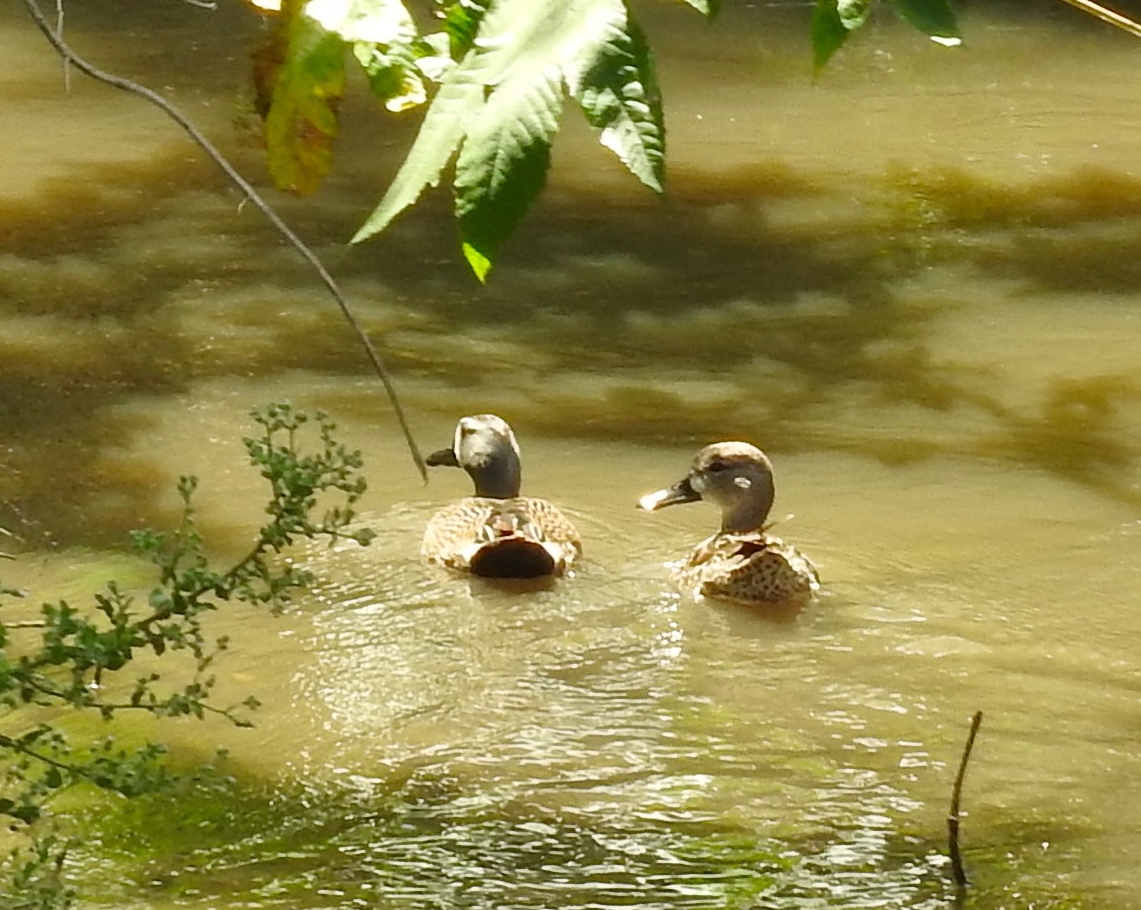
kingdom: Animalia
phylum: Chordata
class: Aves
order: Anseriformes
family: Anatidae
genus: Spatula
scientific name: Spatula discors
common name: Blue-winged teal
